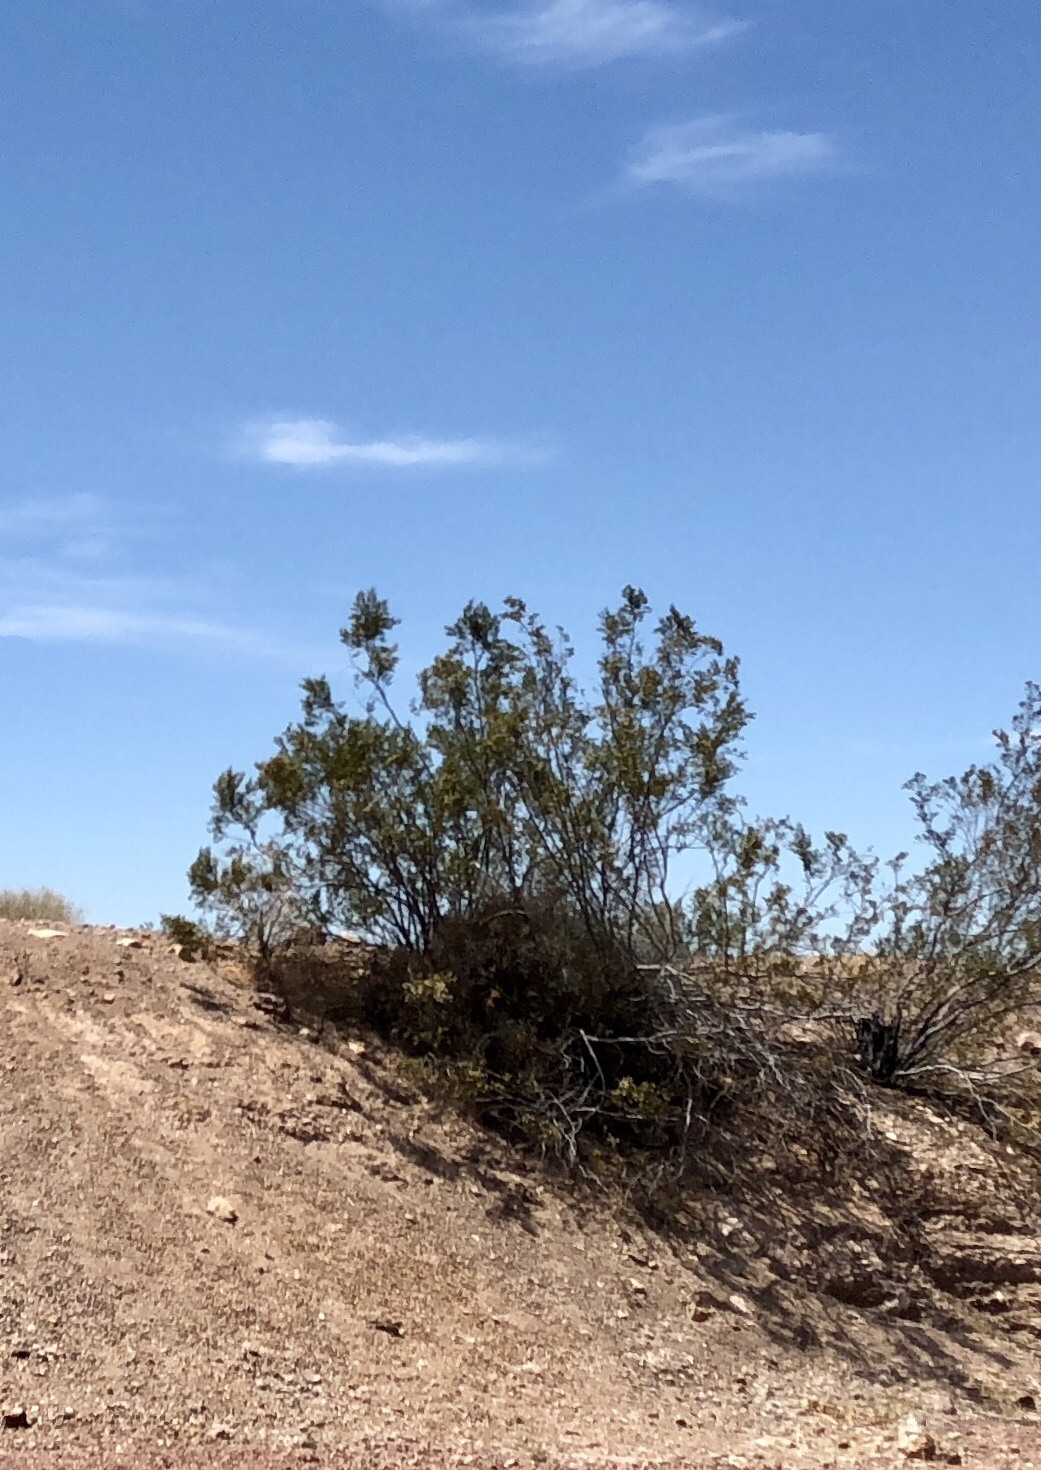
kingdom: Plantae
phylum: Tracheophyta
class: Magnoliopsida
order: Zygophyllales
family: Zygophyllaceae
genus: Larrea
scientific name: Larrea tridentata
